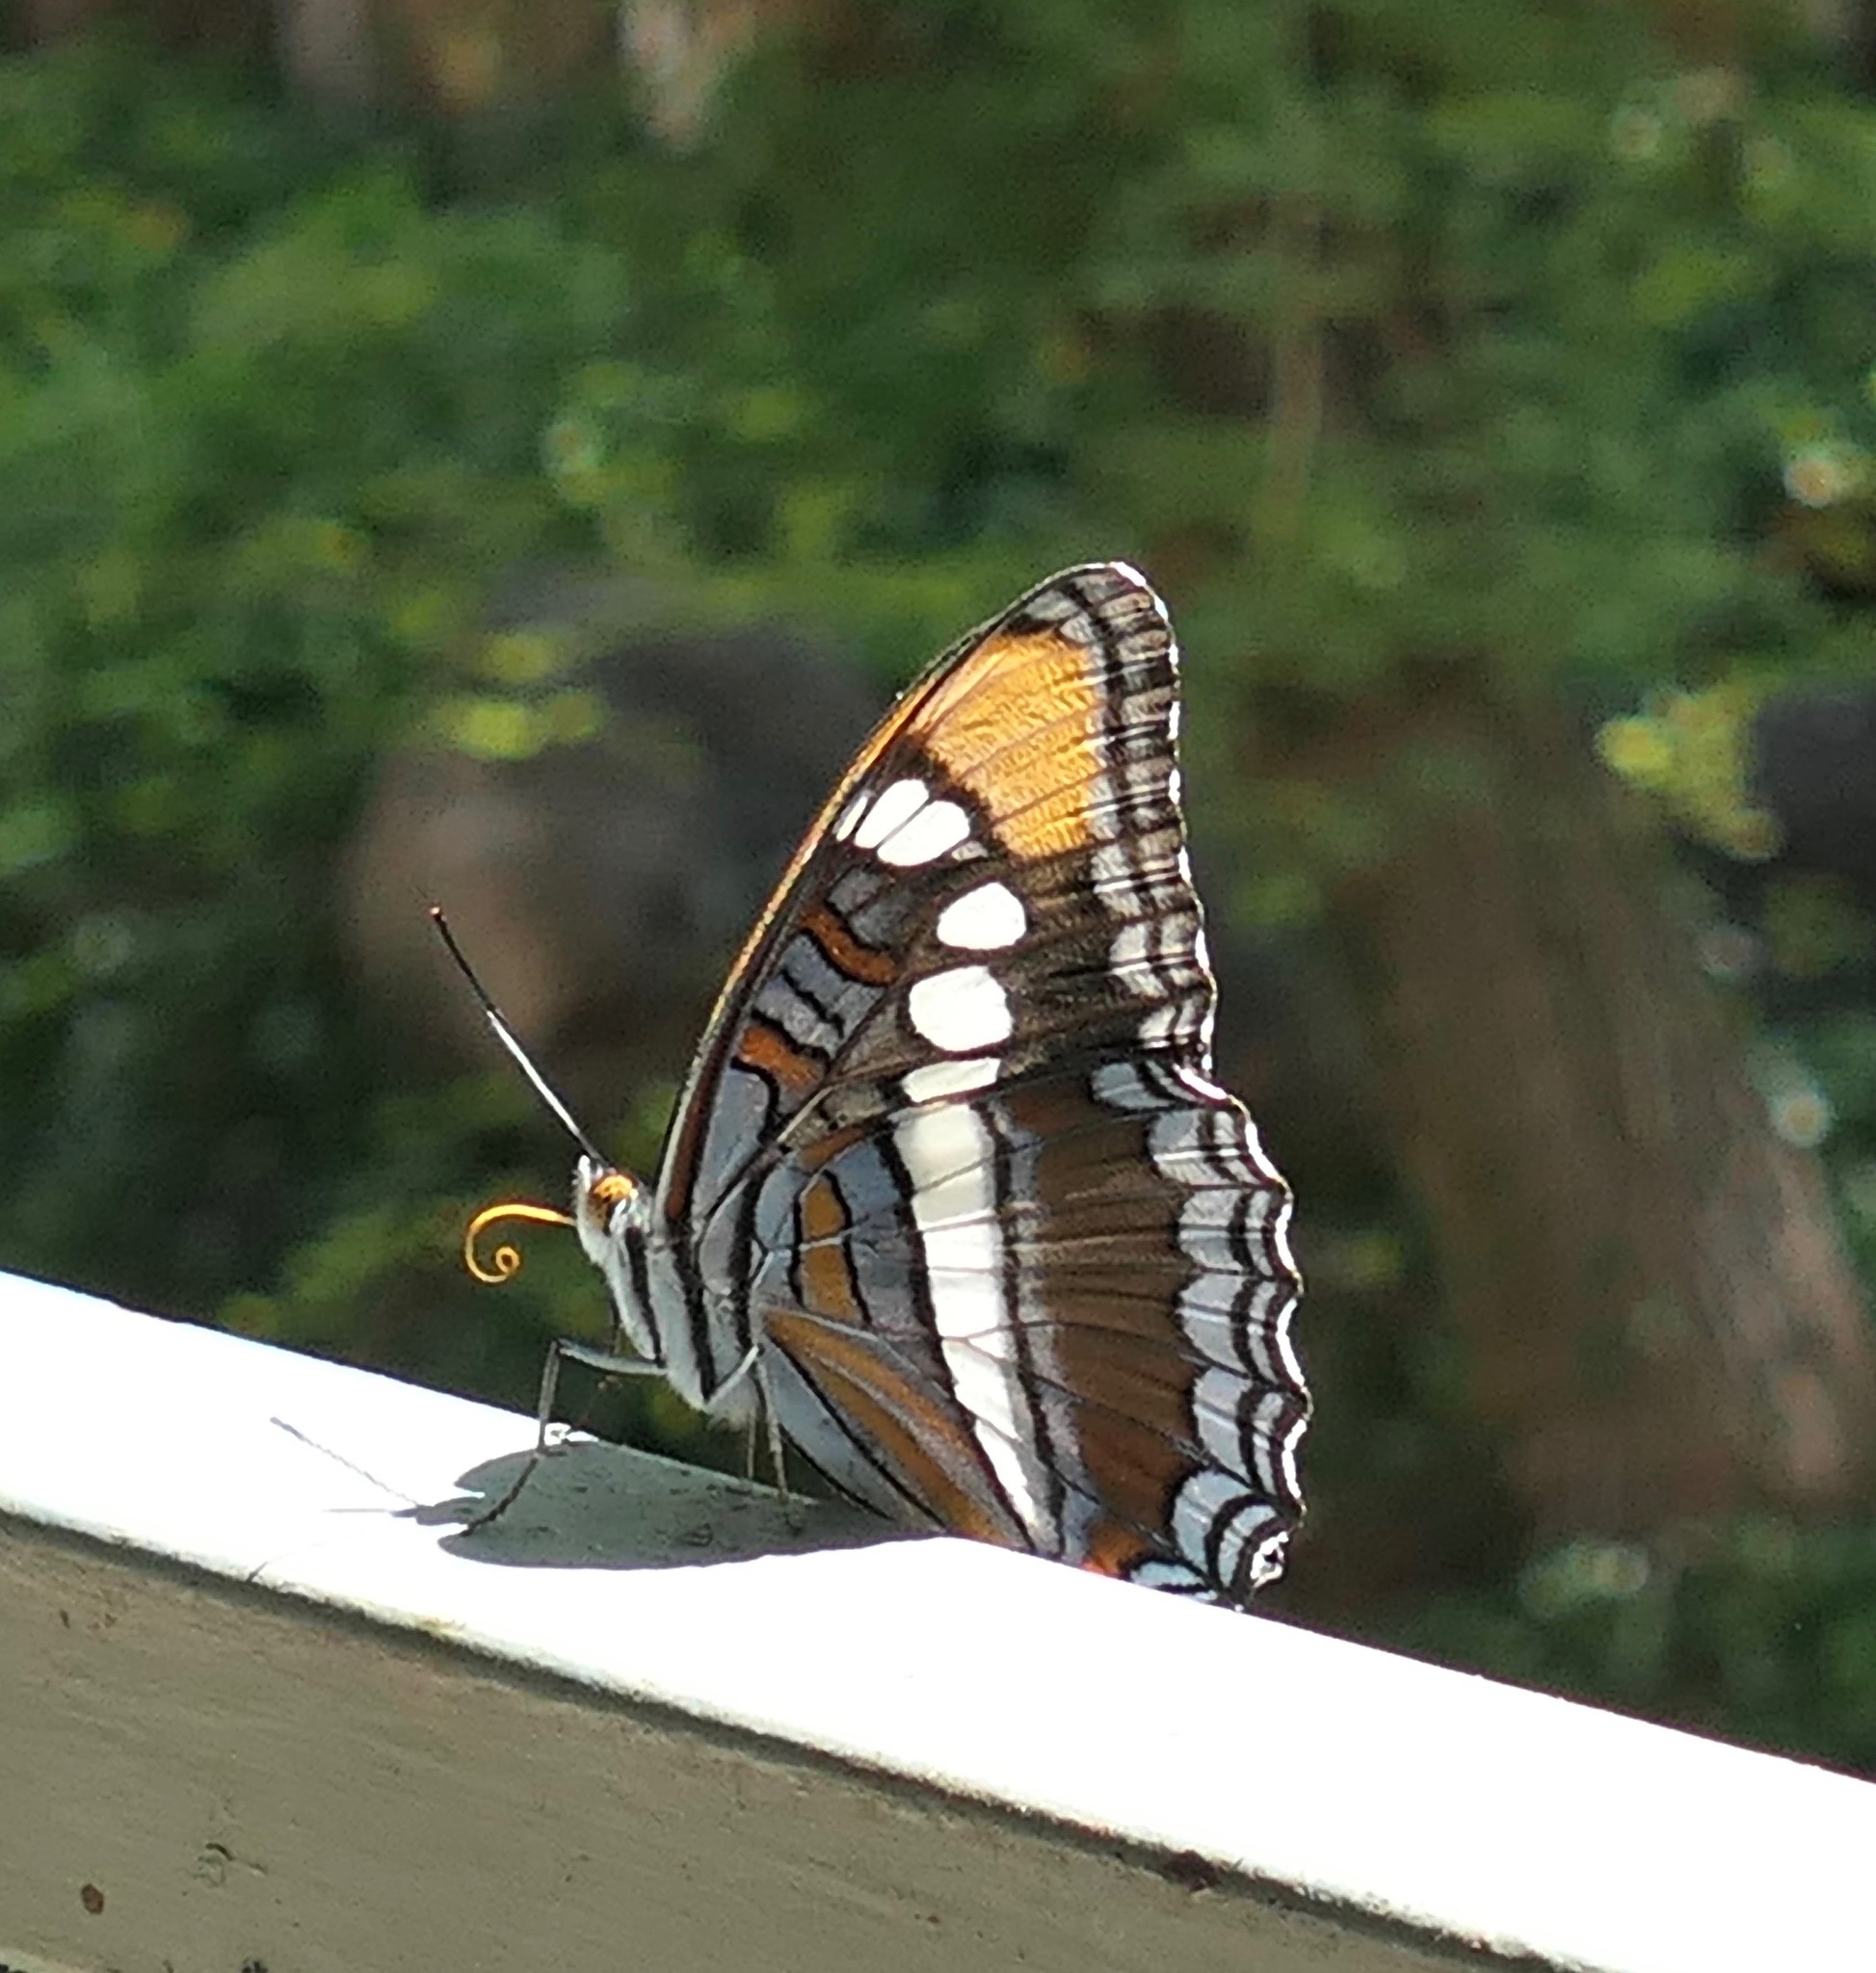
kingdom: Animalia
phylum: Arthropoda
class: Insecta
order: Lepidoptera
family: Nymphalidae
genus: Limenitis
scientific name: Limenitis bredowii
